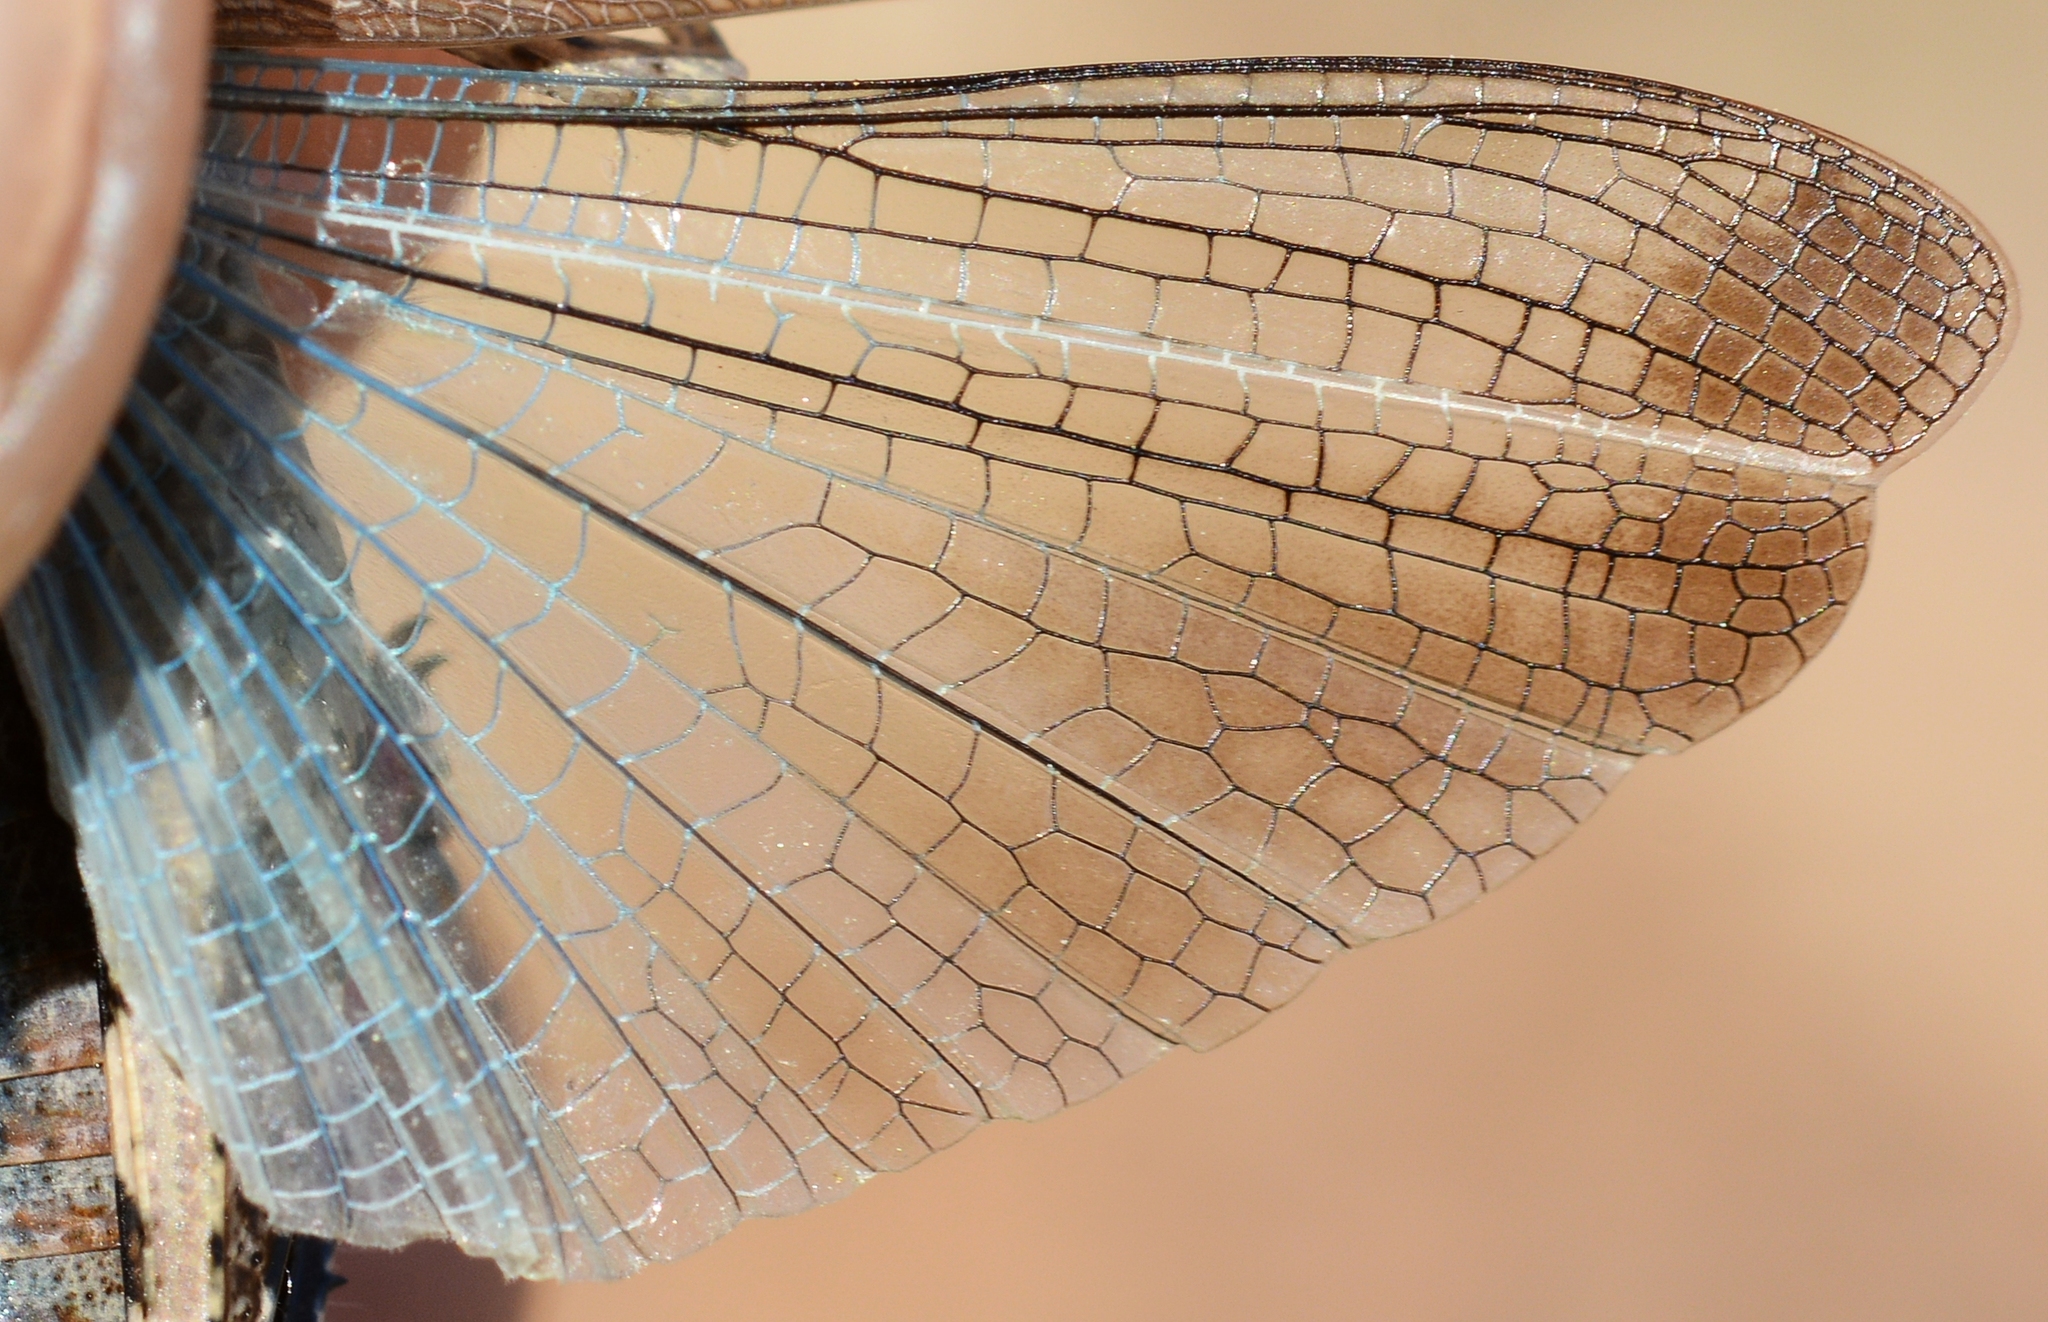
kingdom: Animalia
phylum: Arthropoda
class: Insecta
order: Orthoptera
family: Acrididae
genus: Aiolopus
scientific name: Aiolopus strepens
